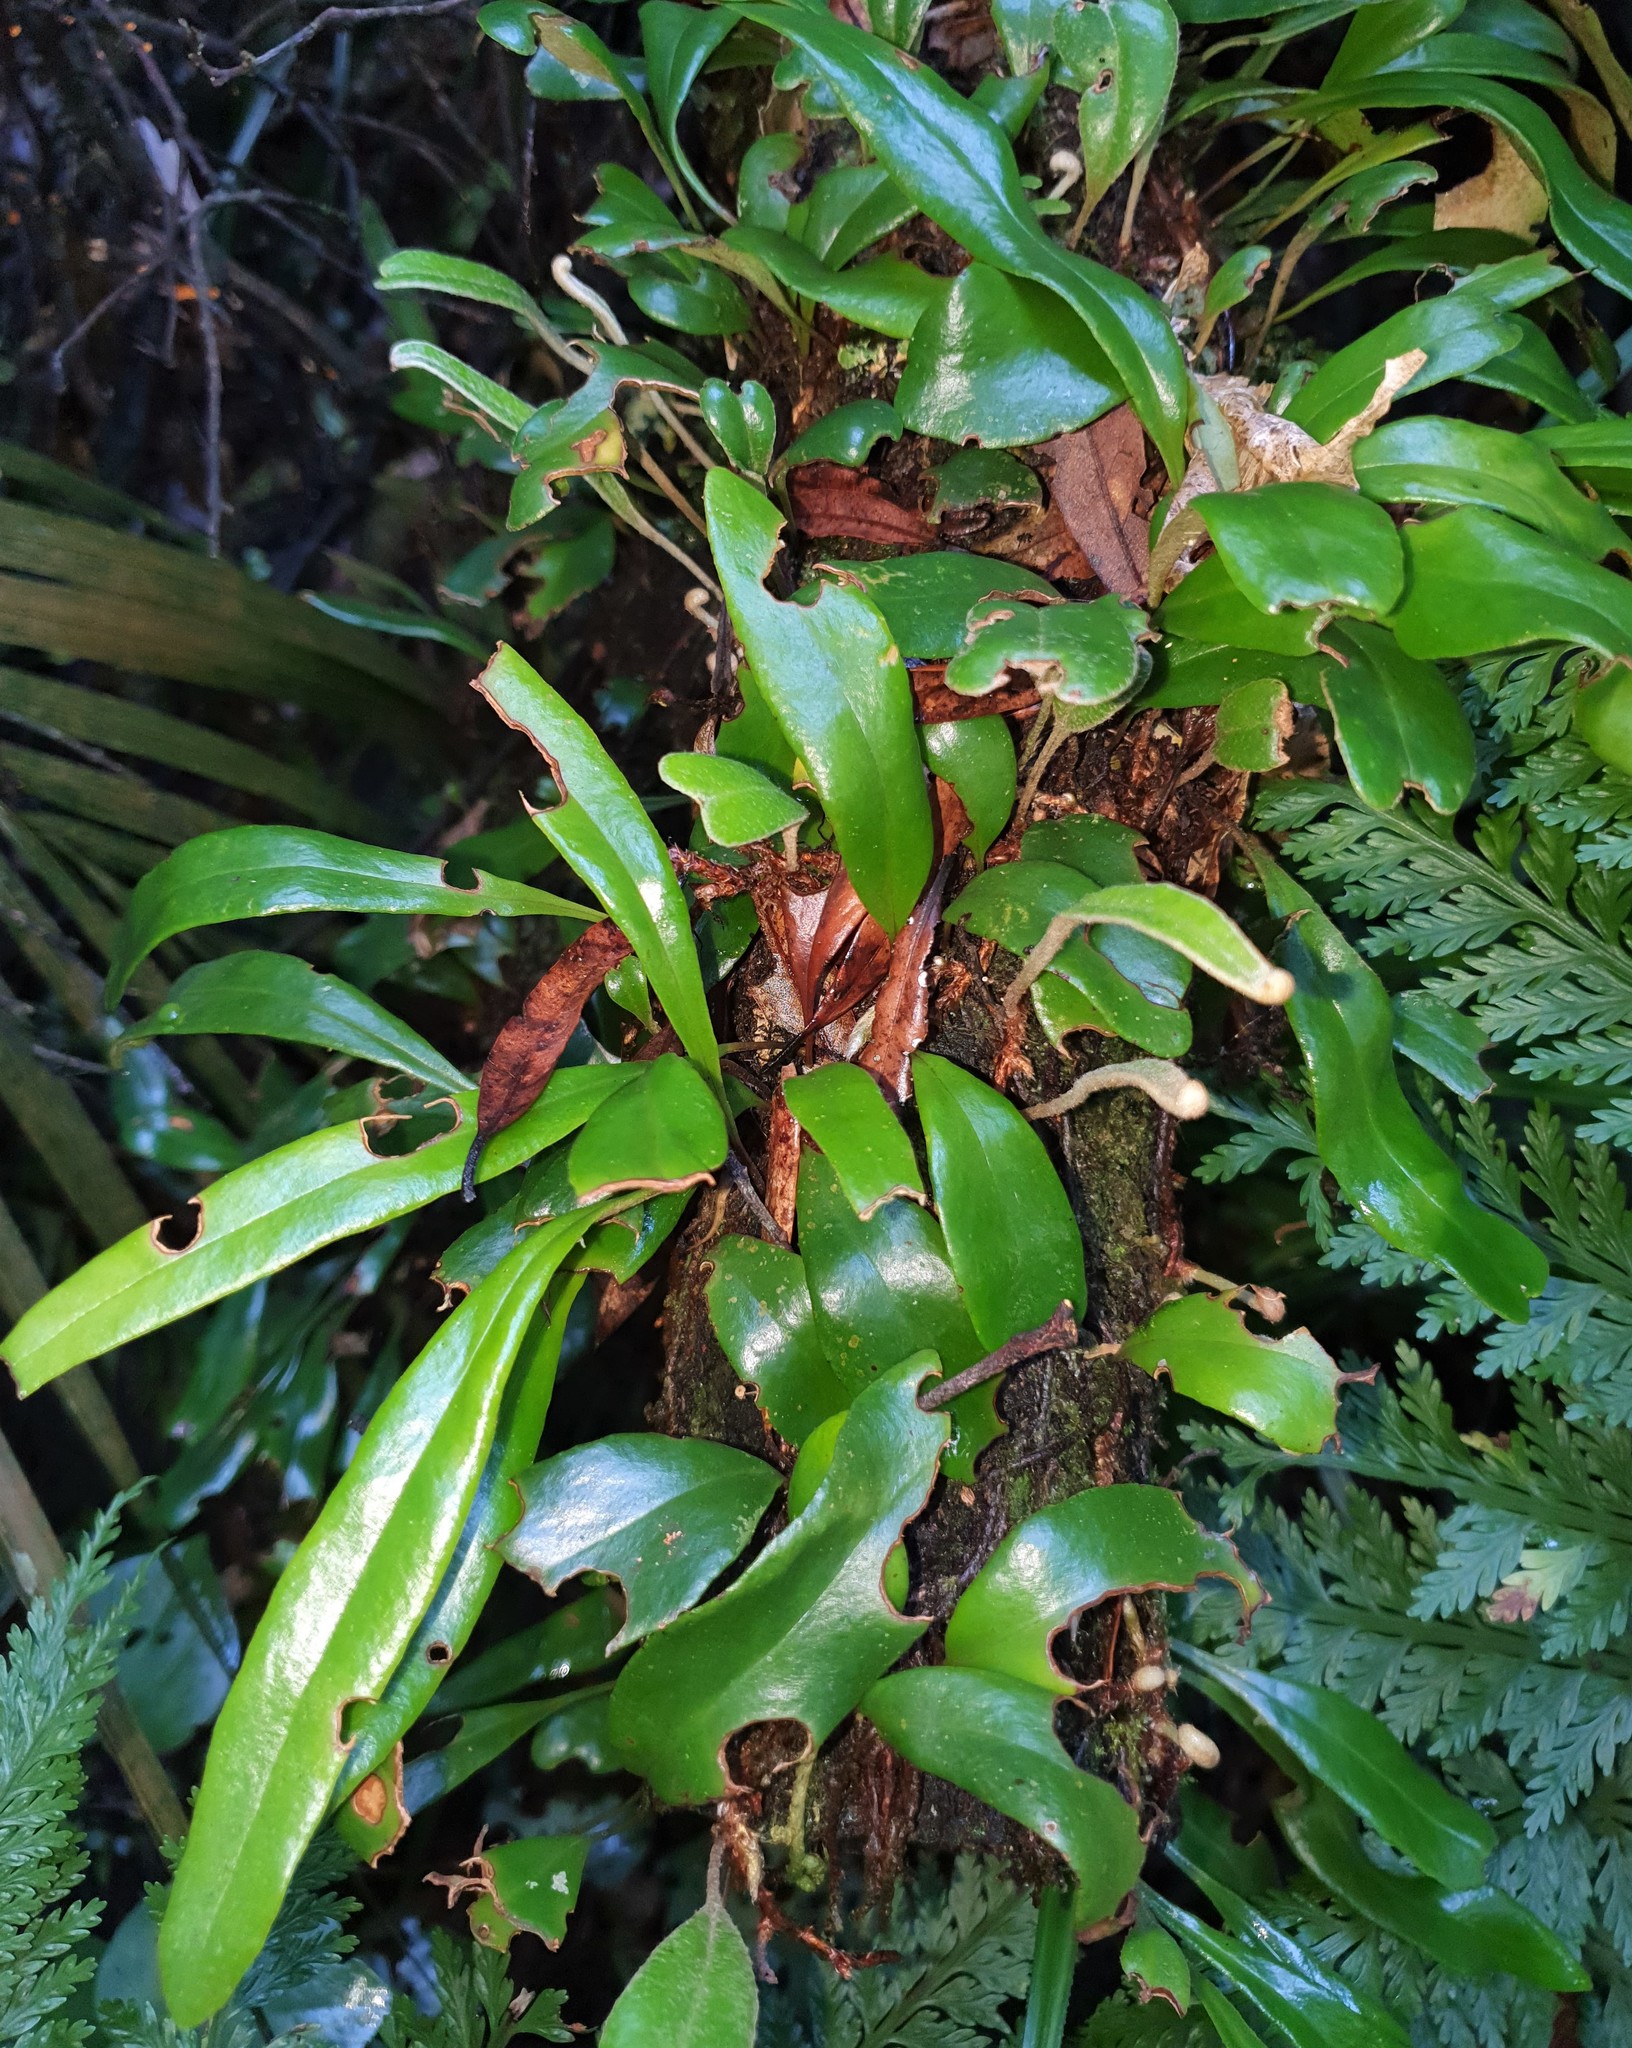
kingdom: Plantae
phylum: Tracheophyta
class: Polypodiopsida
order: Polypodiales
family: Polypodiaceae
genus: Pyrrosia
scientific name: Pyrrosia eleagnifolia
